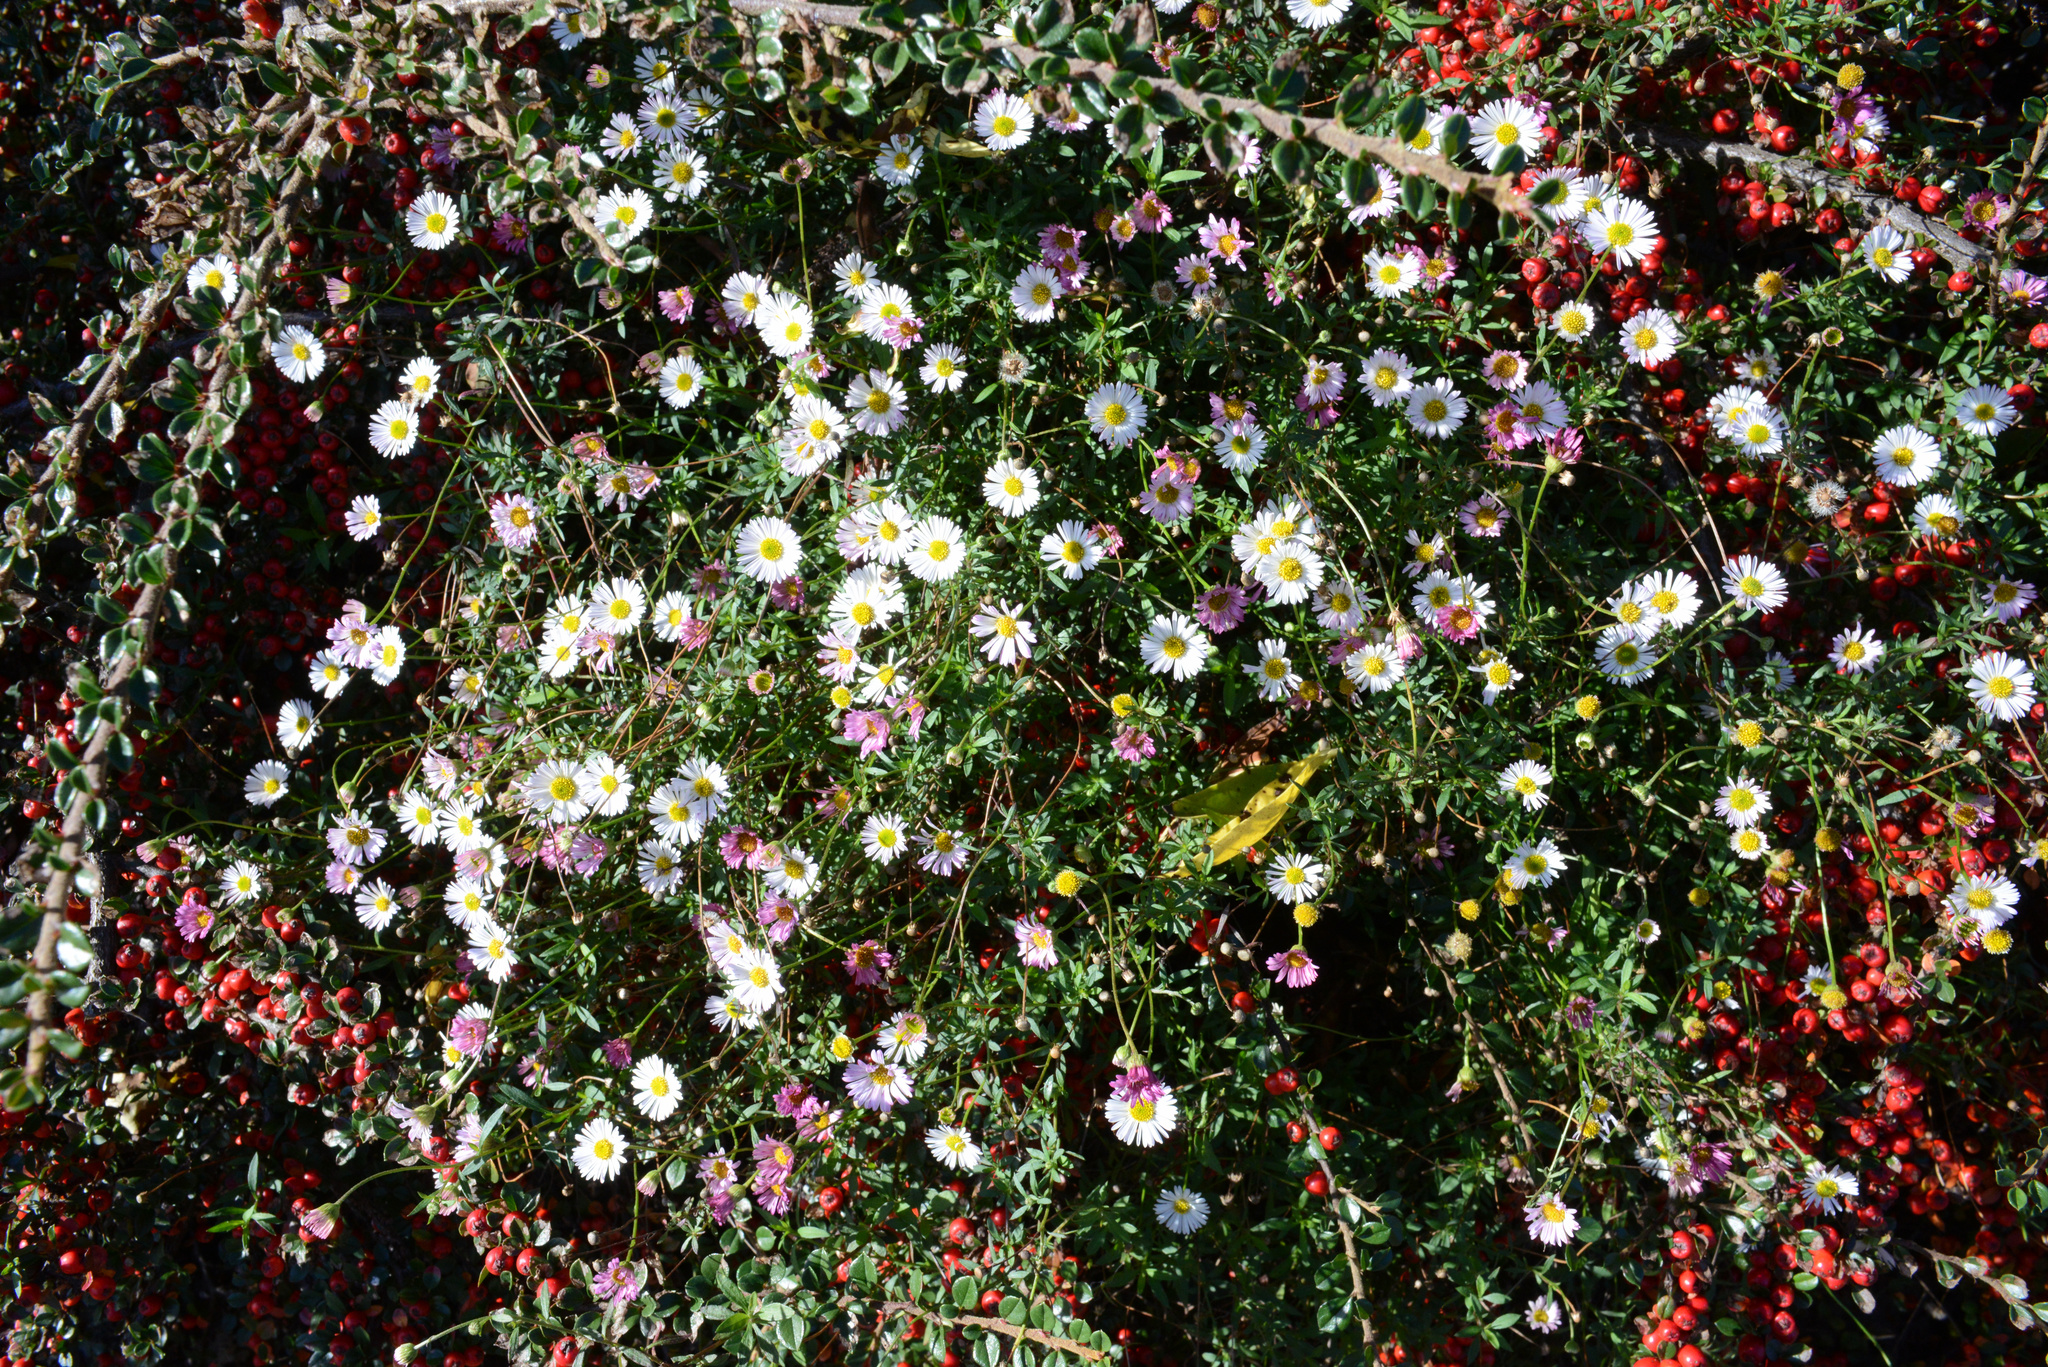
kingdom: Plantae
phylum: Tracheophyta
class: Magnoliopsida
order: Asterales
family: Asteraceae
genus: Erigeron
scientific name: Erigeron karvinskianus
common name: Mexican fleabane
